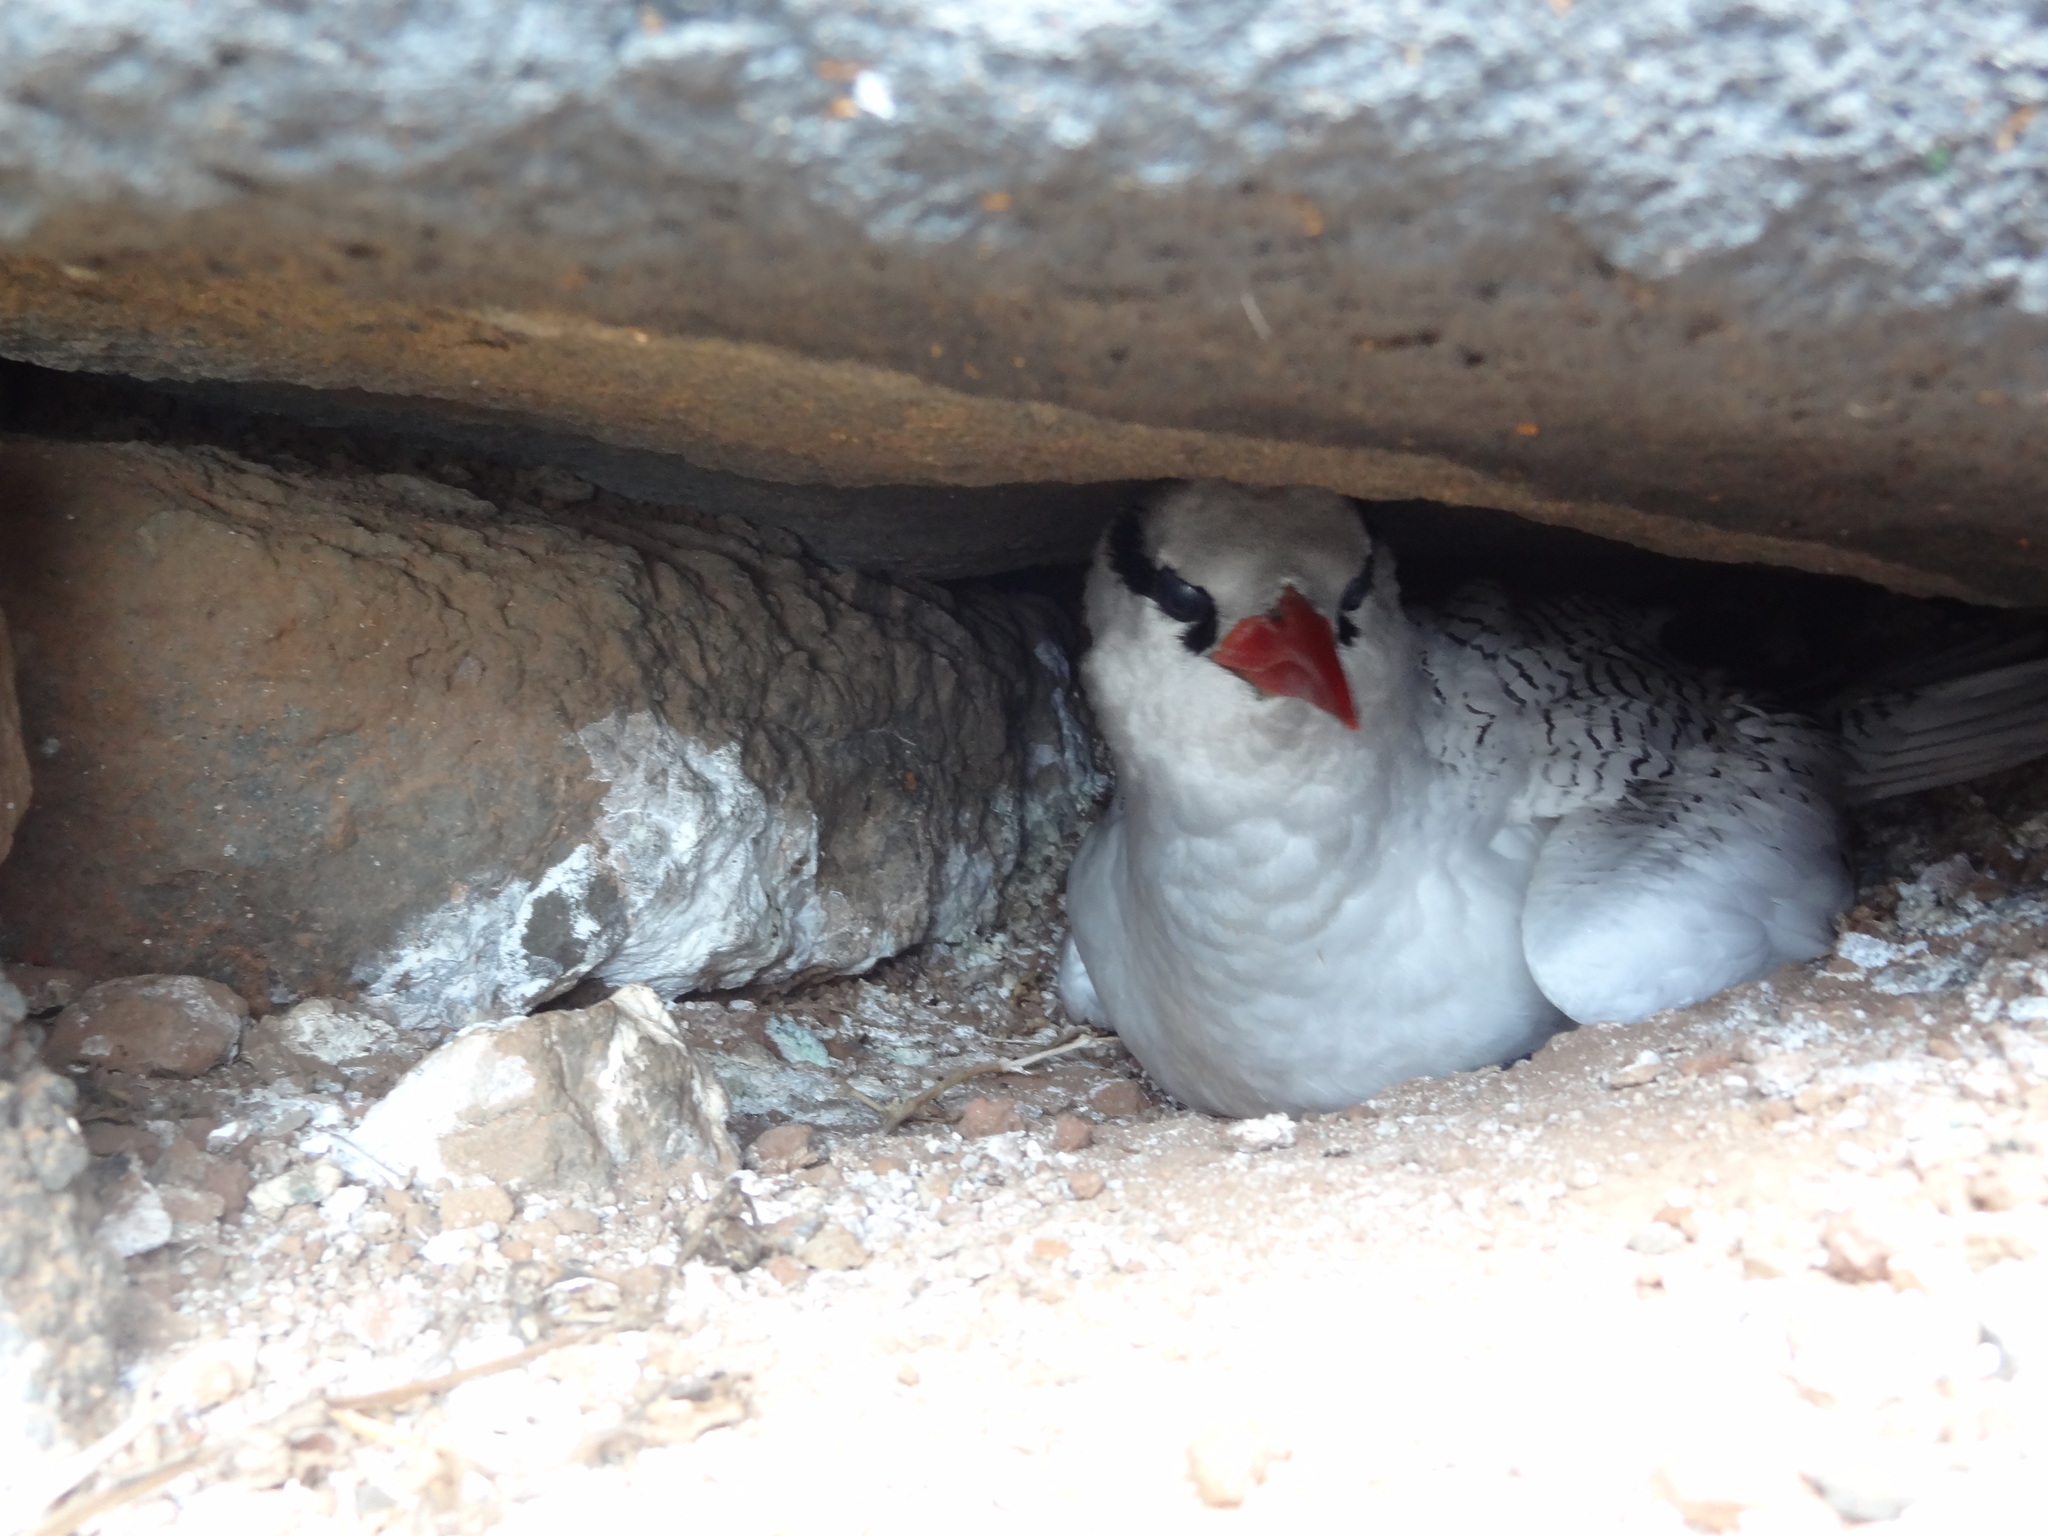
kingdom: Animalia
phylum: Chordata
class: Aves
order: Phaethontiformes
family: Phaethontidae
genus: Phaethon
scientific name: Phaethon aethereus
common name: Red-billed tropicbird
